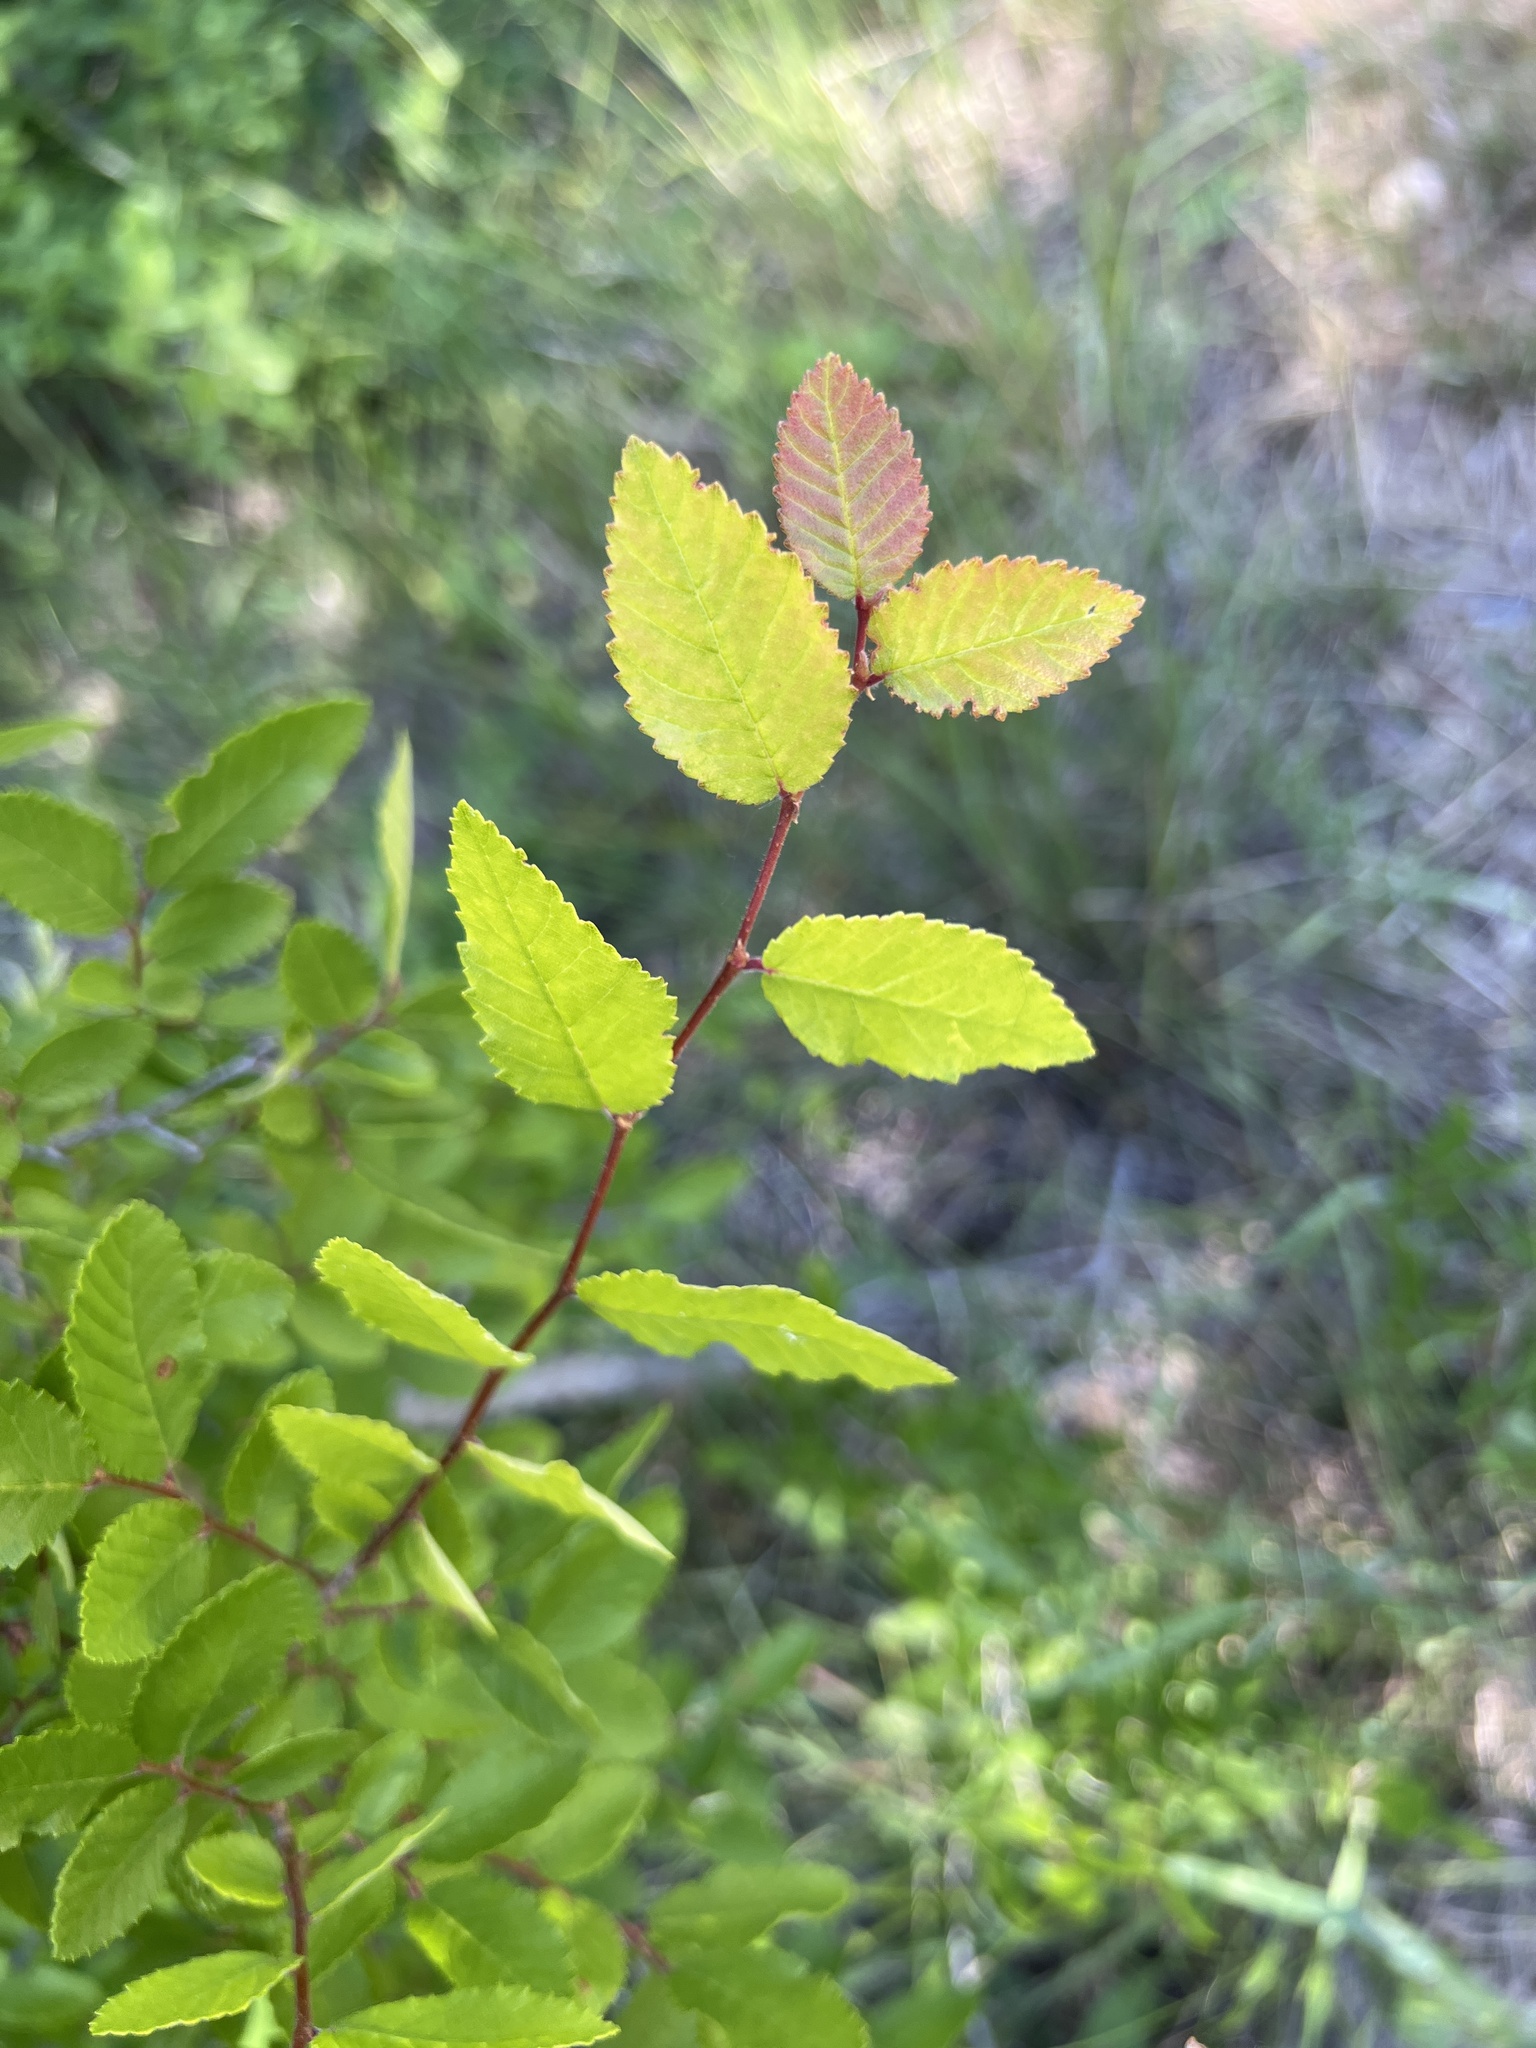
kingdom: Plantae
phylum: Tracheophyta
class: Magnoliopsida
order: Rosales
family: Ulmaceae
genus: Ulmus
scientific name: Ulmus crassifolia
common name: Basket elm
